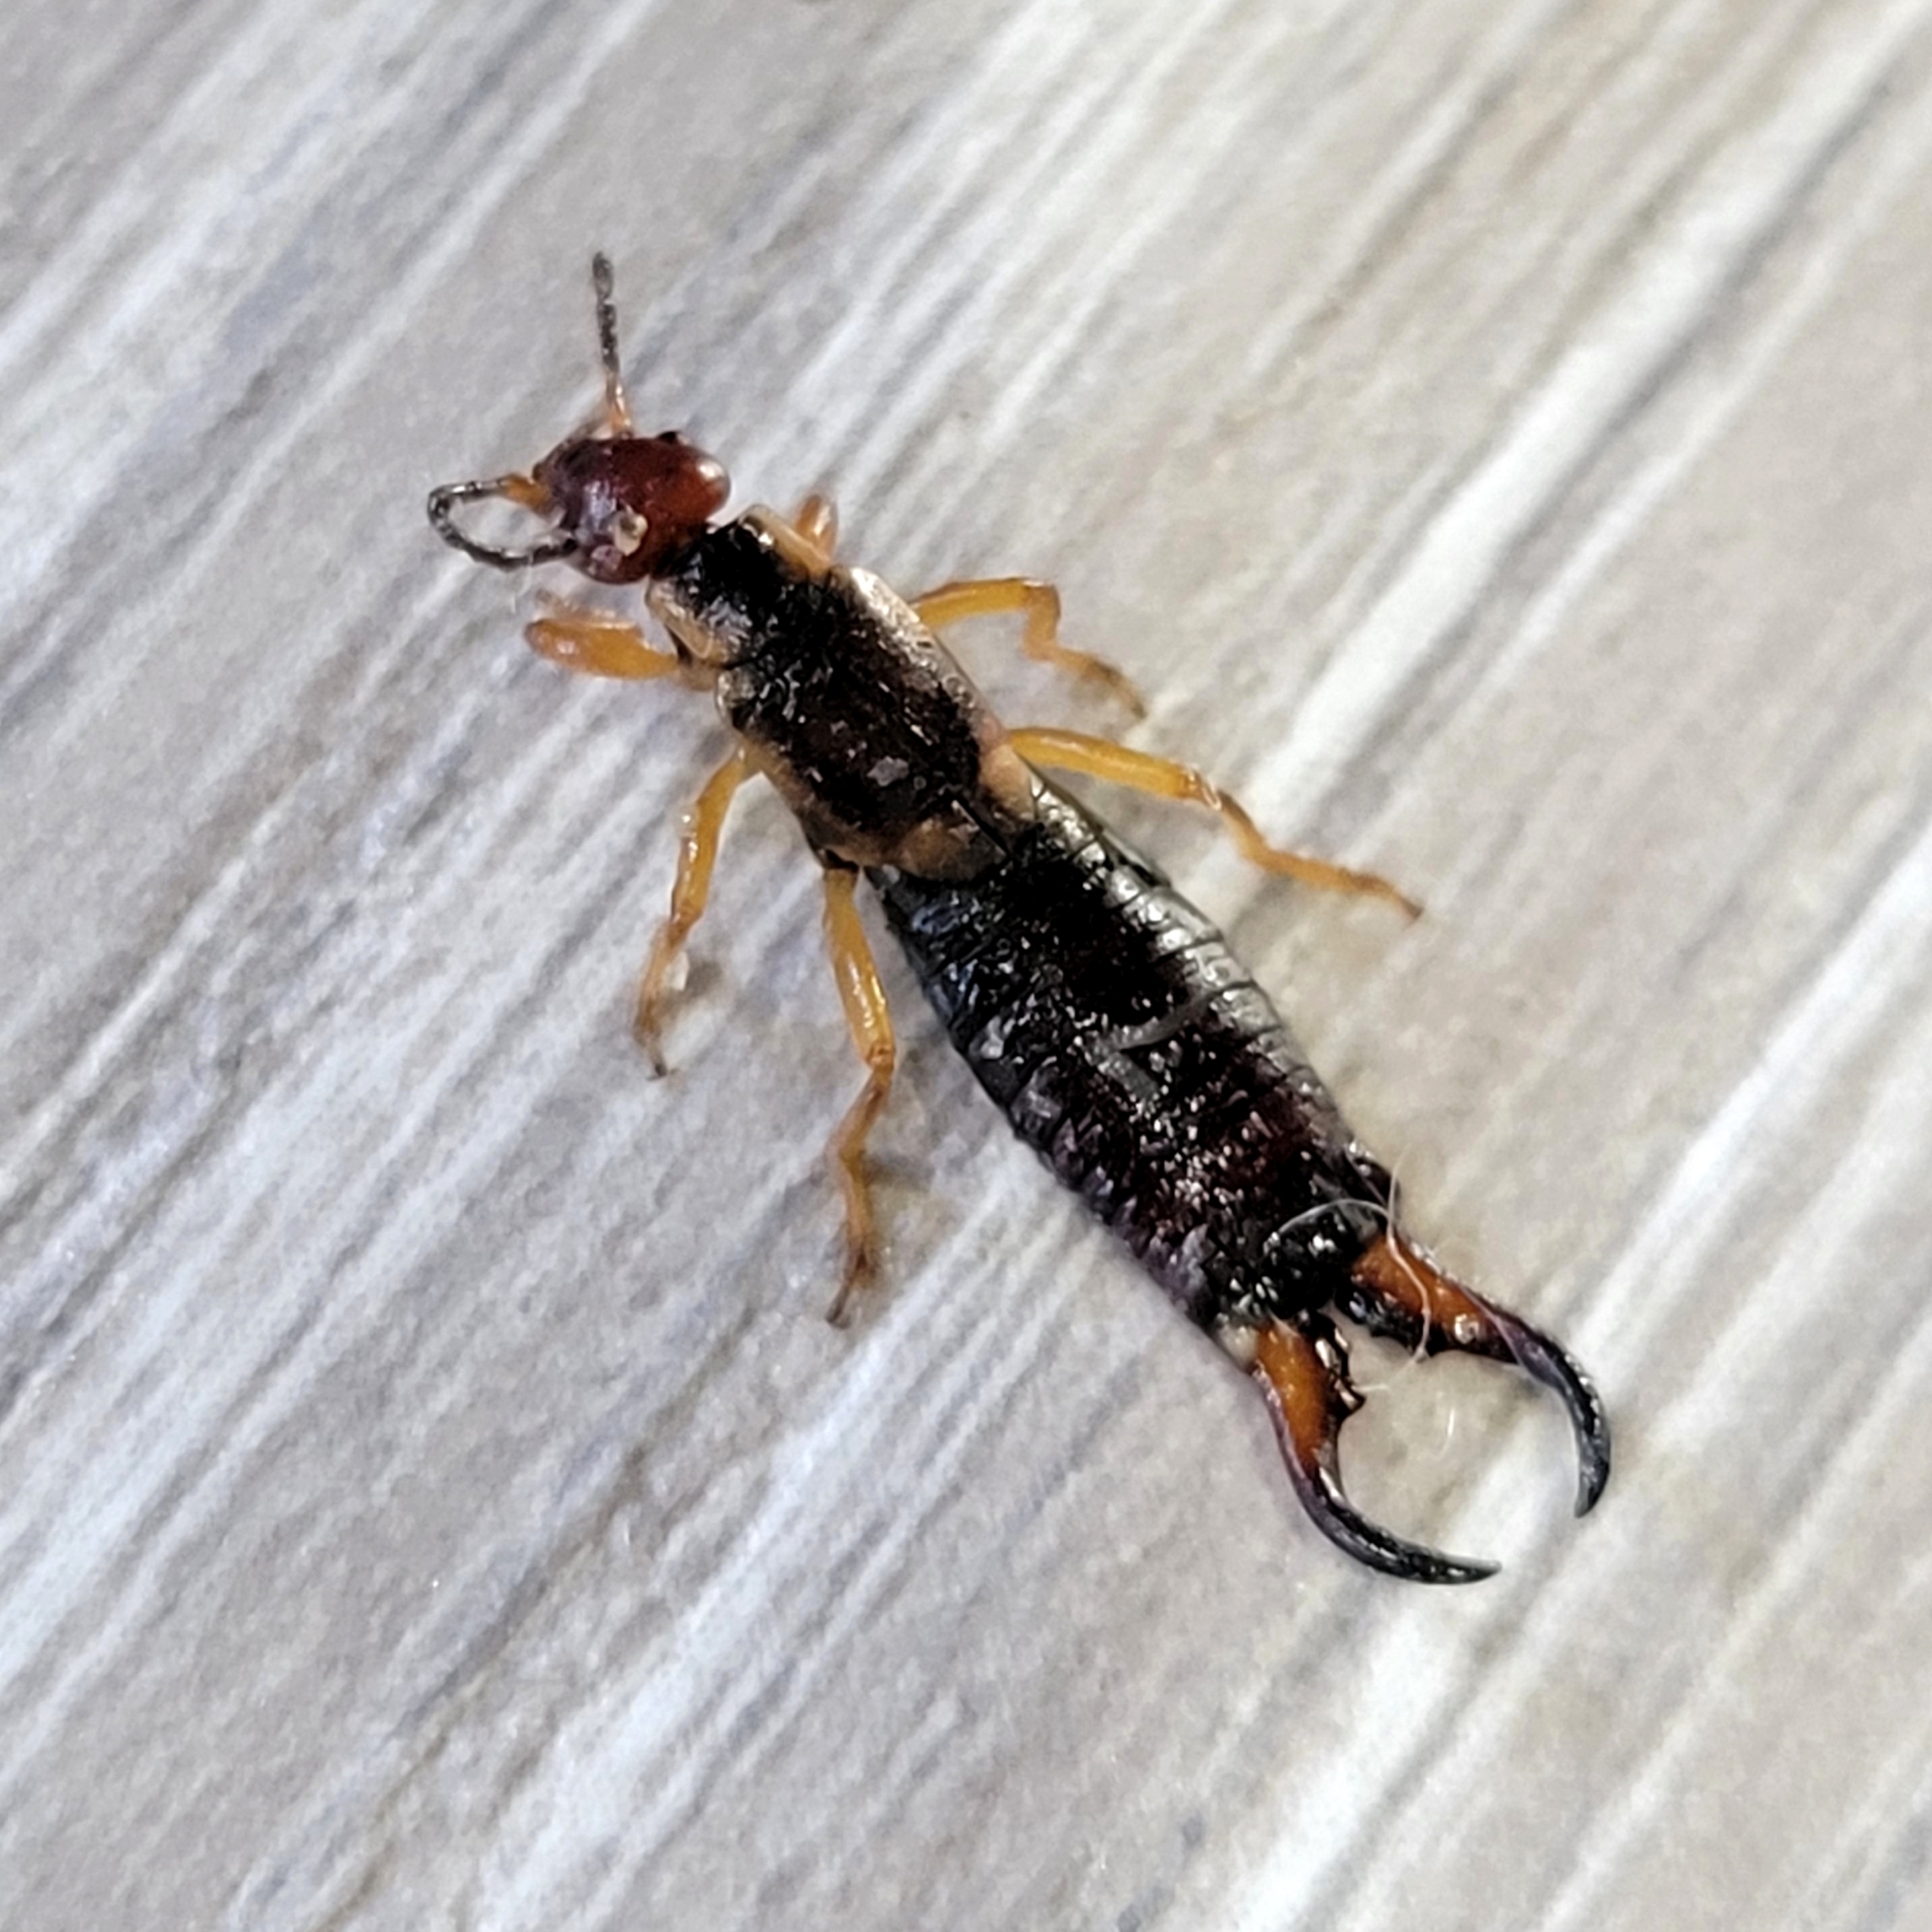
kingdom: Animalia
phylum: Arthropoda
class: Insecta
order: Dermaptera
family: Forficulidae
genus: Forficula
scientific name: Forficula dentata
